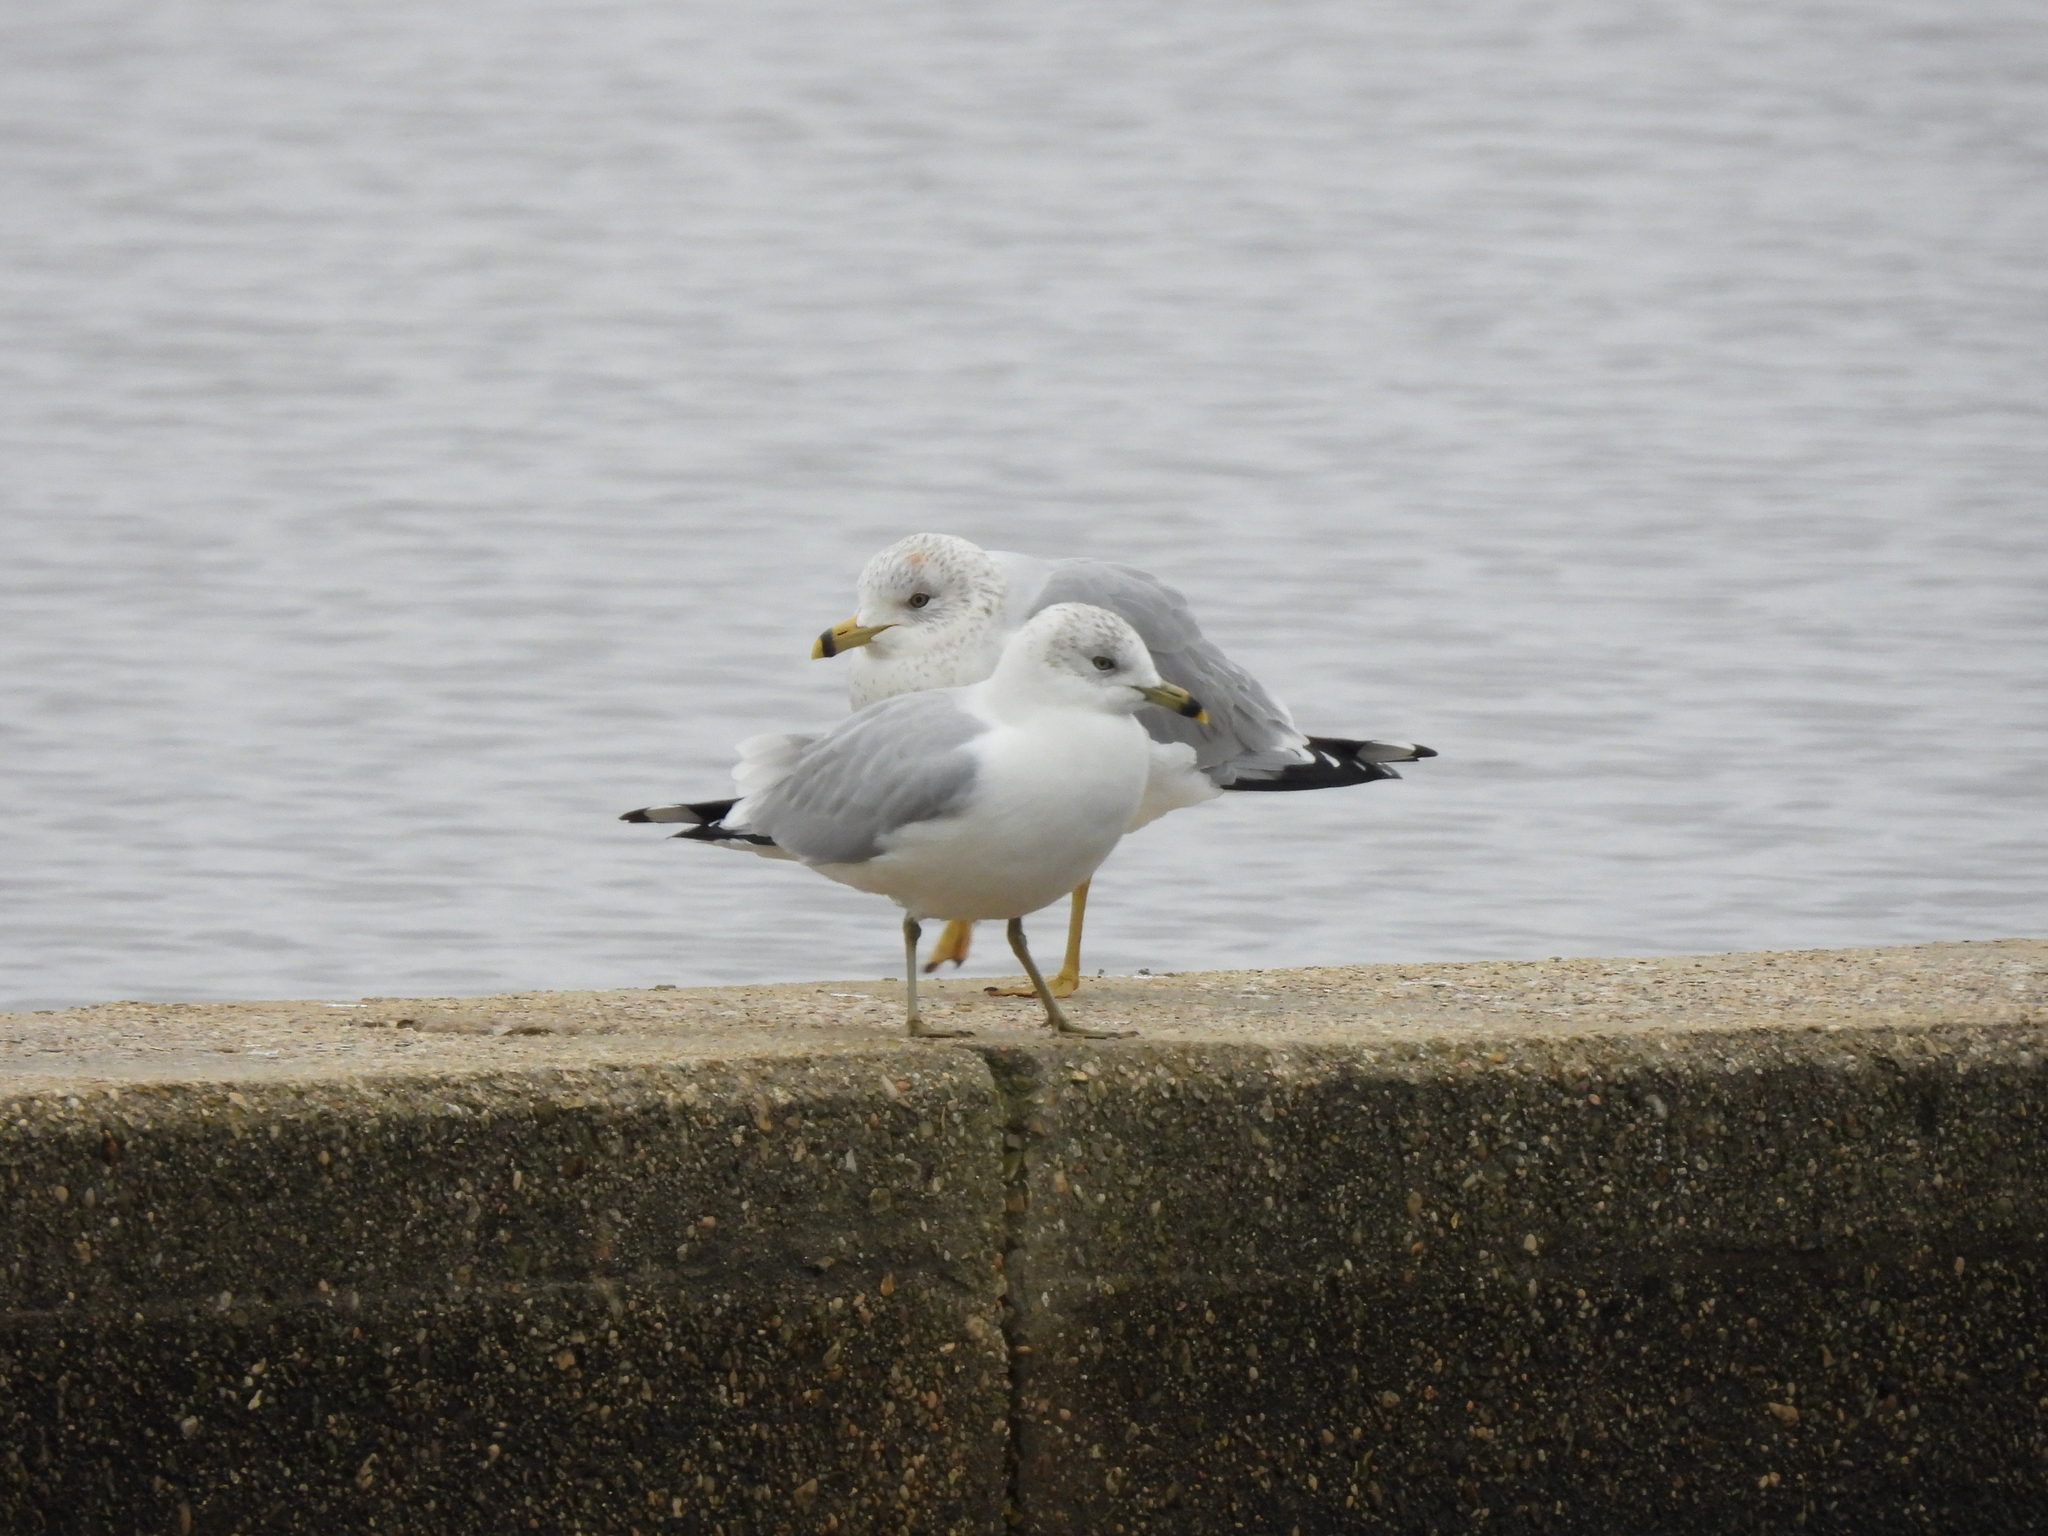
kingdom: Animalia
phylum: Chordata
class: Aves
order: Charadriiformes
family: Laridae
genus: Larus
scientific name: Larus delawarensis
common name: Ring-billed gull
